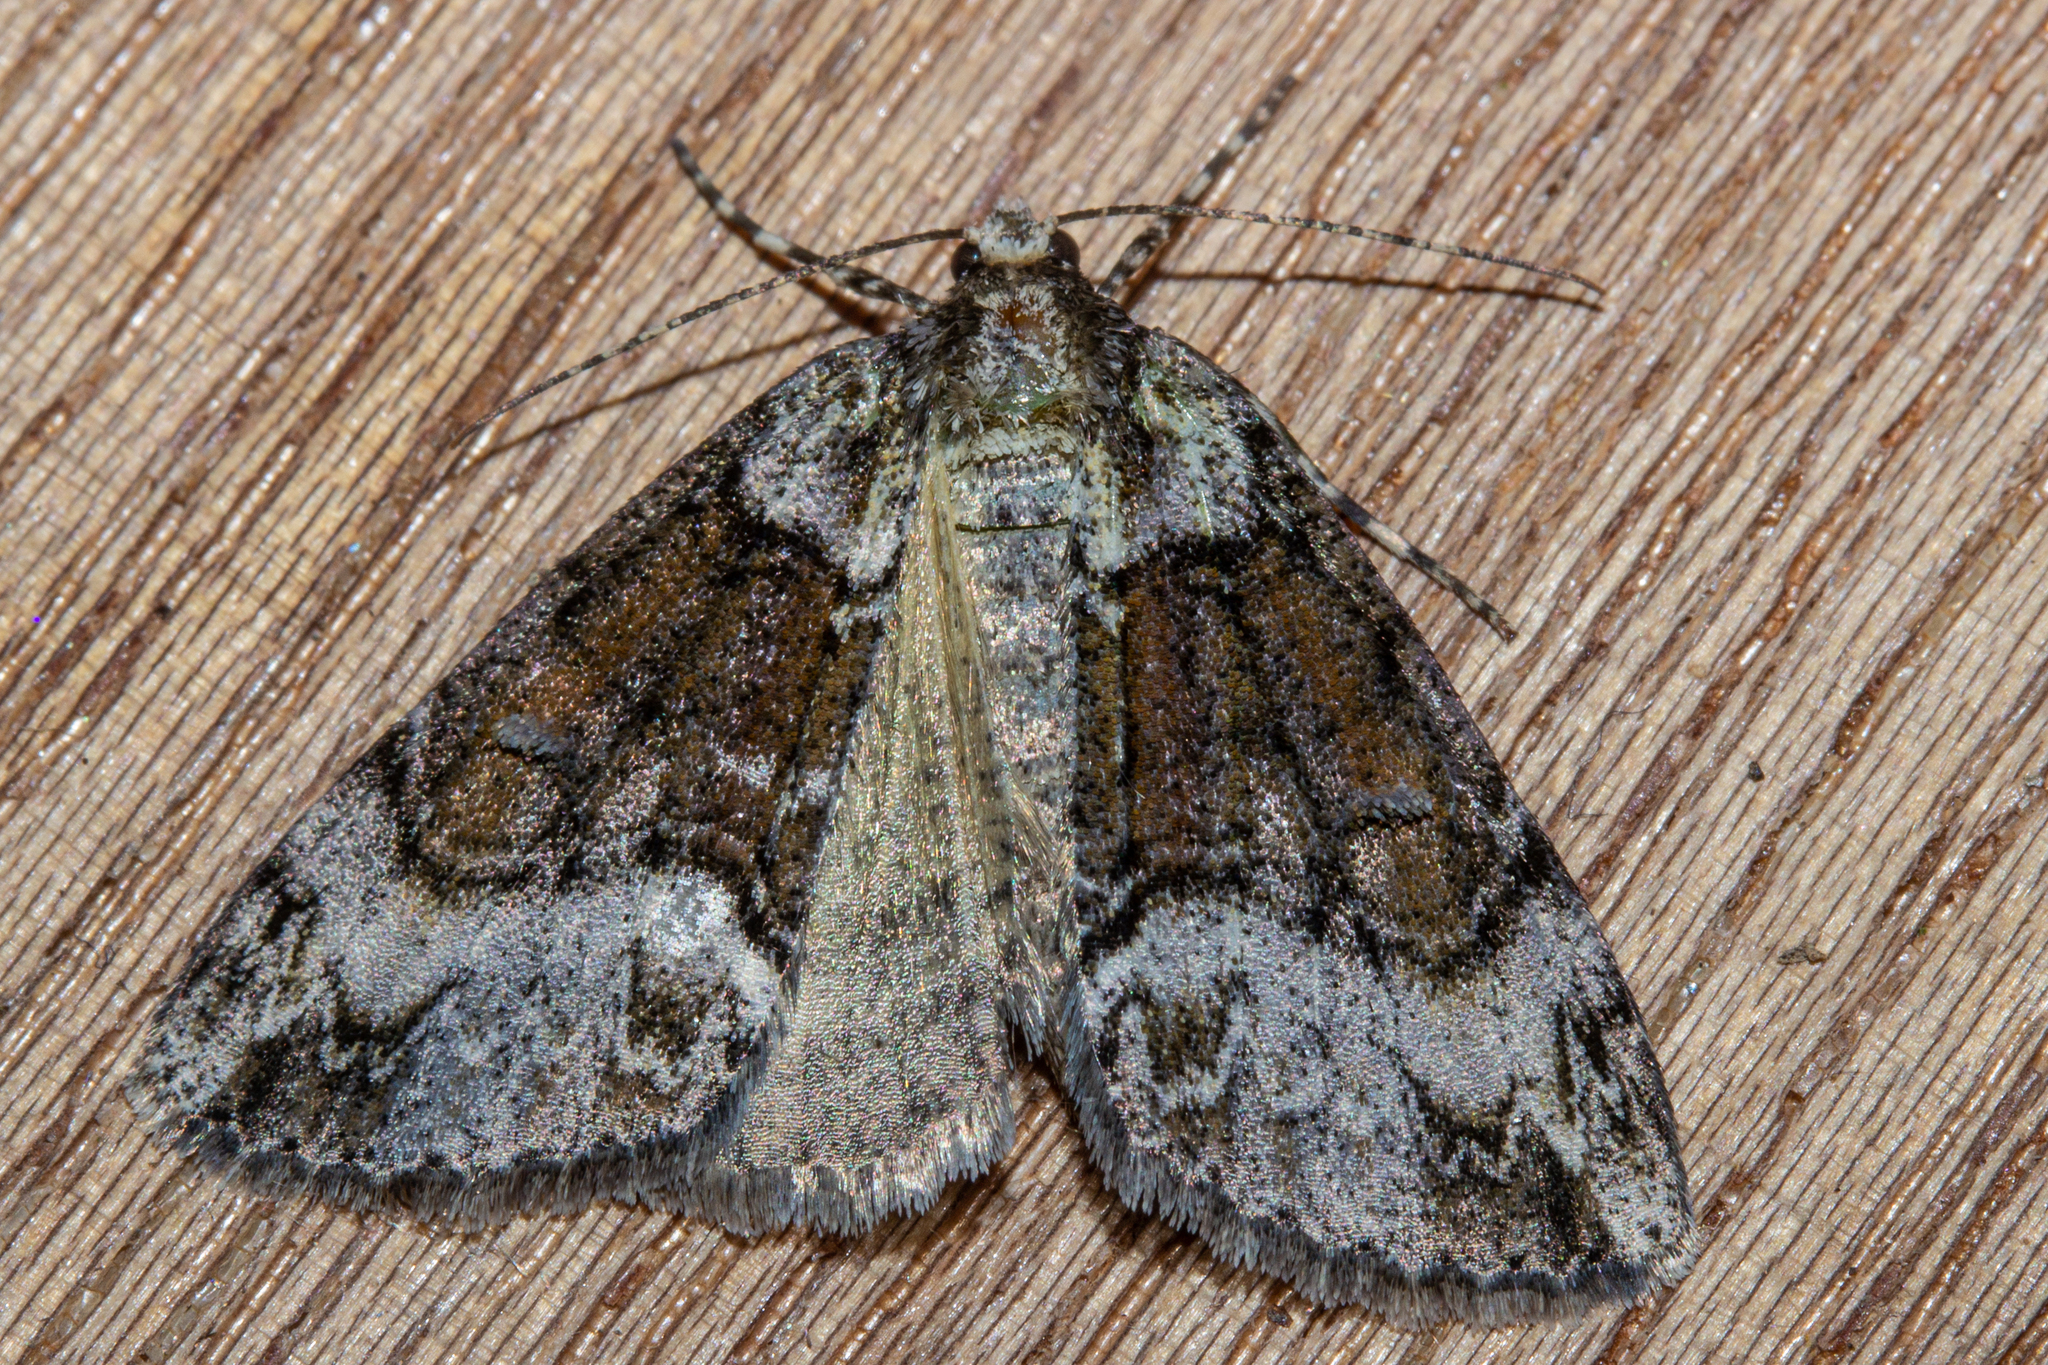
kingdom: Animalia
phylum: Arthropoda
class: Insecta
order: Lepidoptera
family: Geometridae
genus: Pseudocoremia
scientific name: Pseudocoremia suavis
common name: Common forest looper
